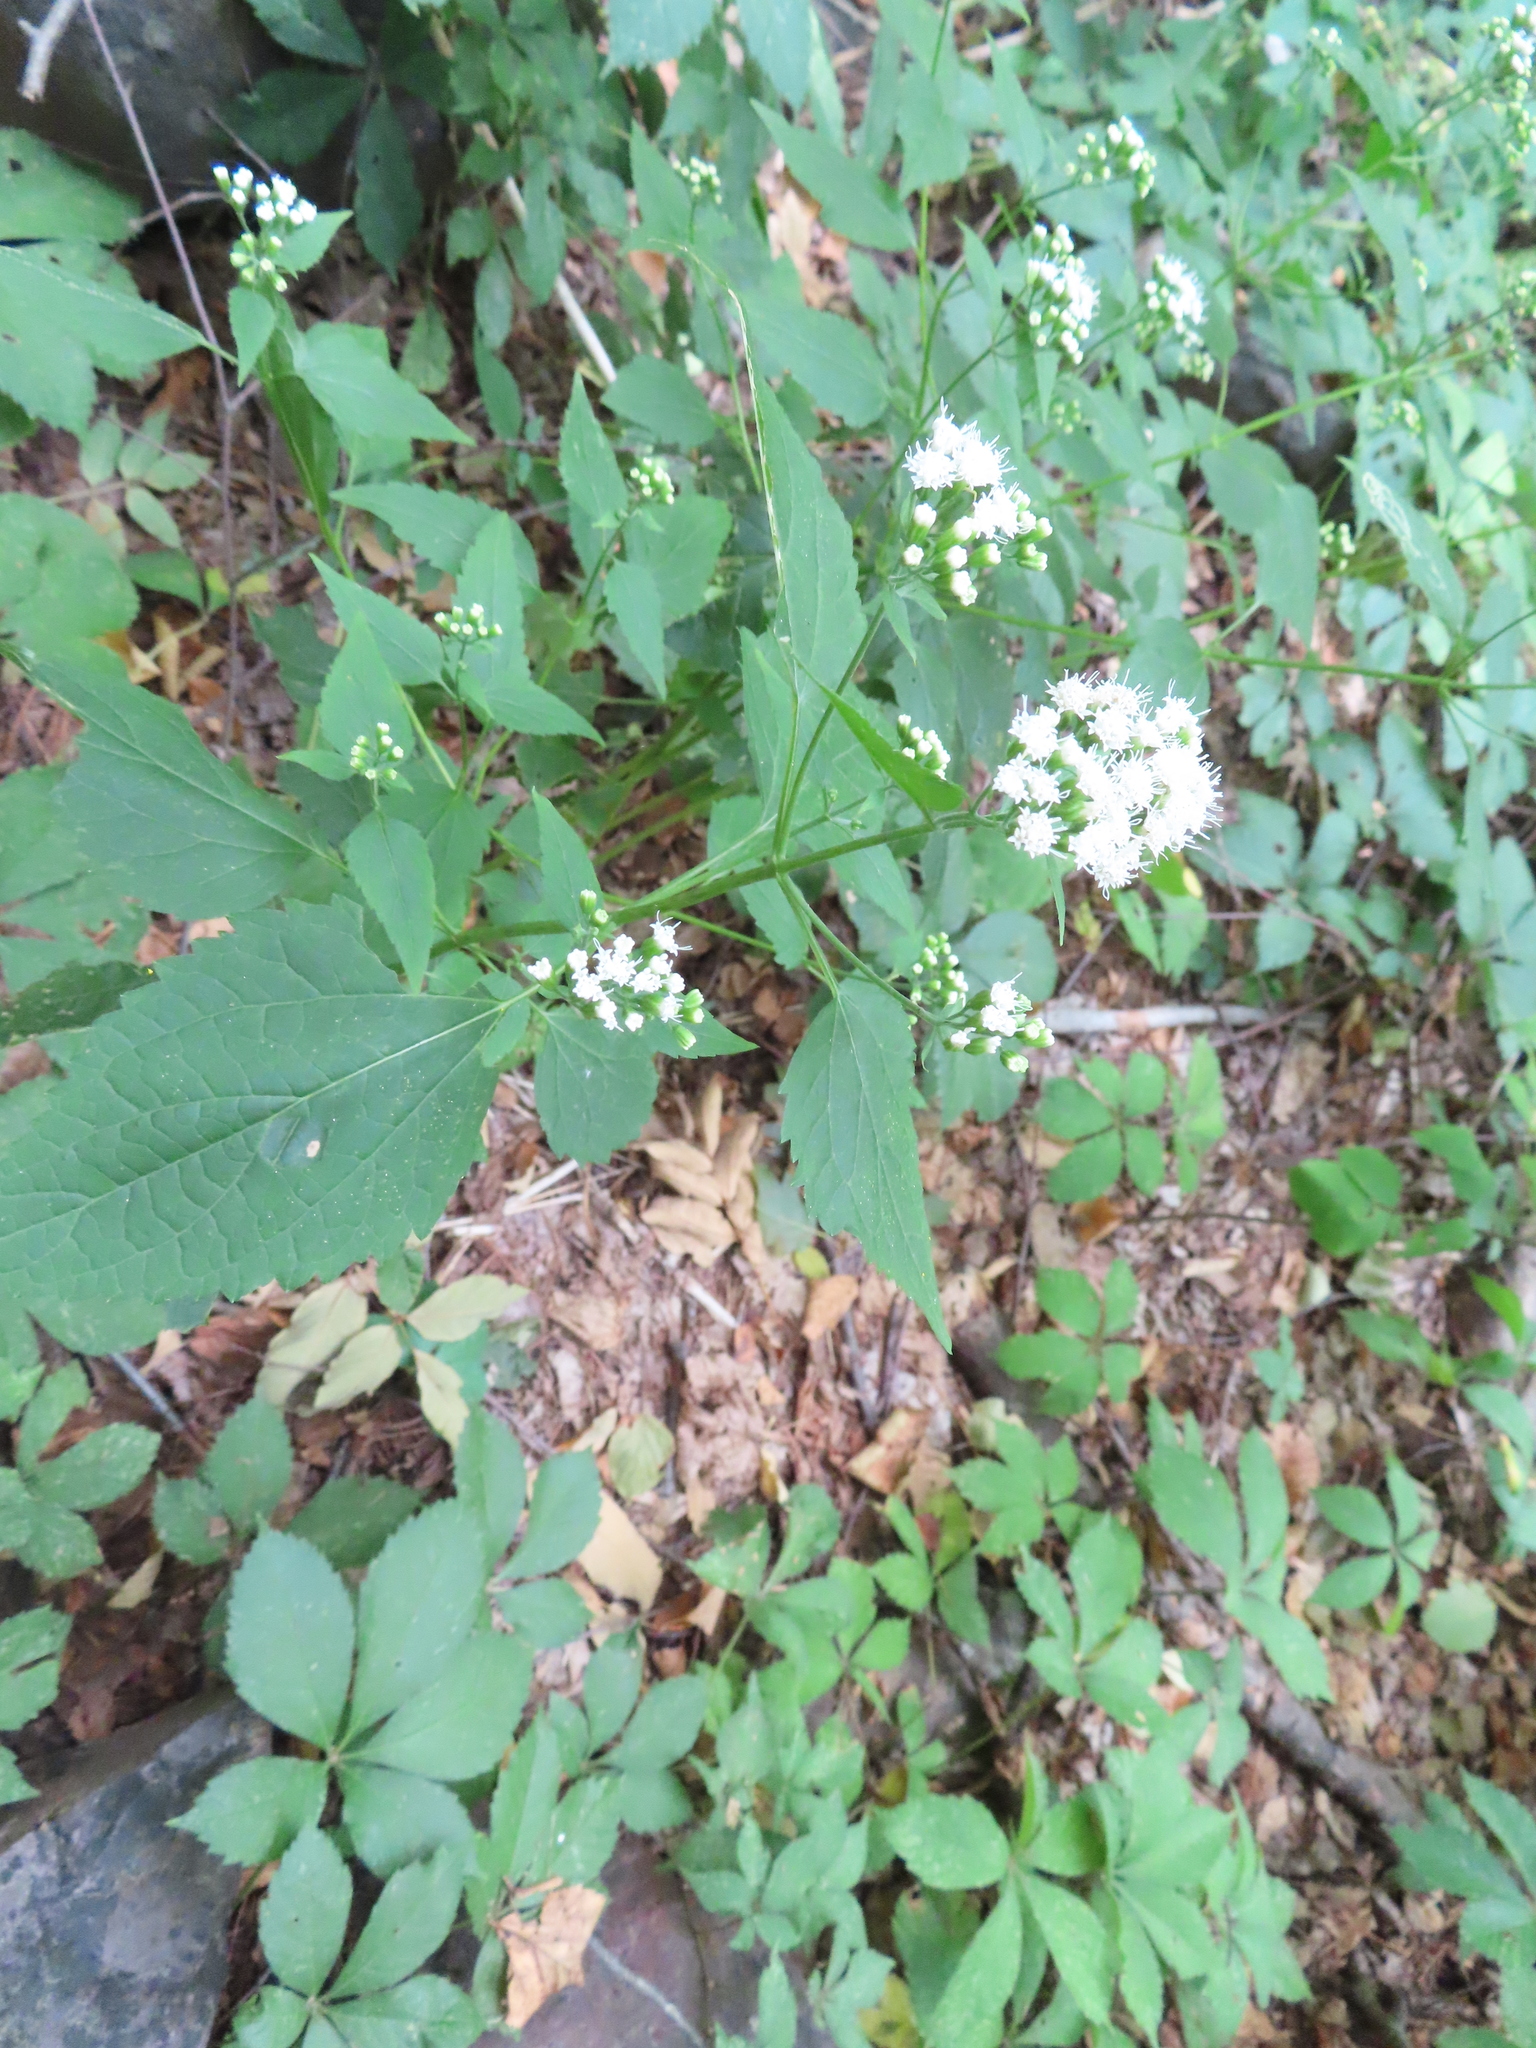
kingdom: Plantae
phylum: Tracheophyta
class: Magnoliopsida
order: Asterales
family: Asteraceae
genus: Ageratina
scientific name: Ageratina altissima
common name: White snakeroot
